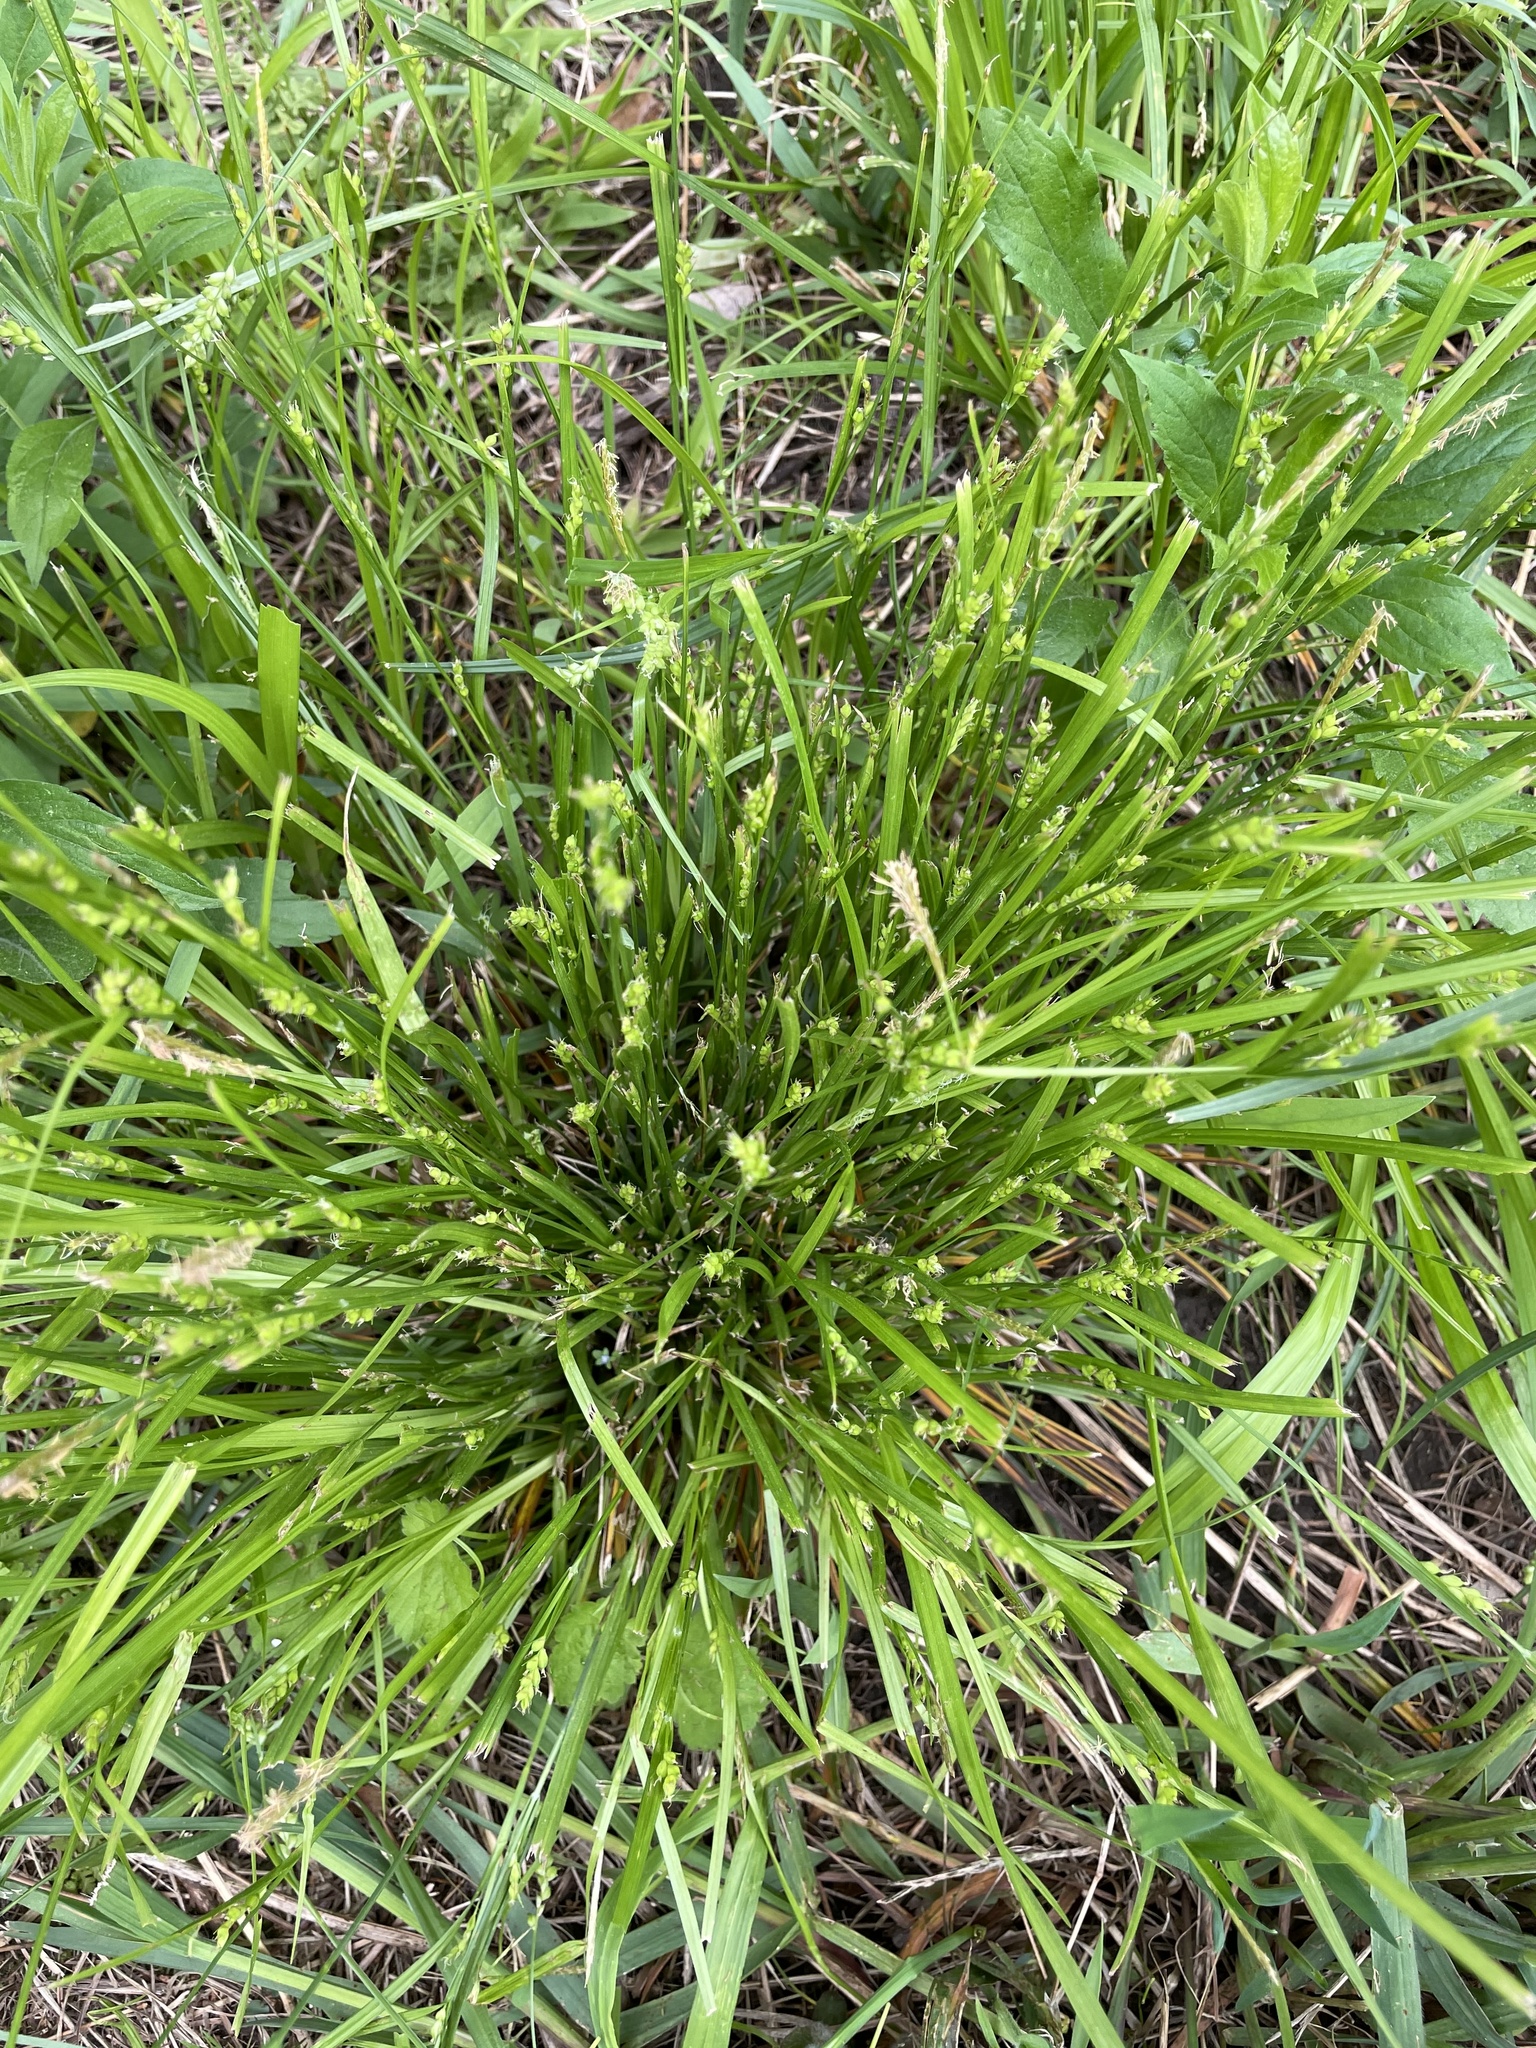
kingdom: Plantae
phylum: Tracheophyta
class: Liliopsida
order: Poales
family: Cyperaceae
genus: Carex
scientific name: Carex blanda
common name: Bland sedge
